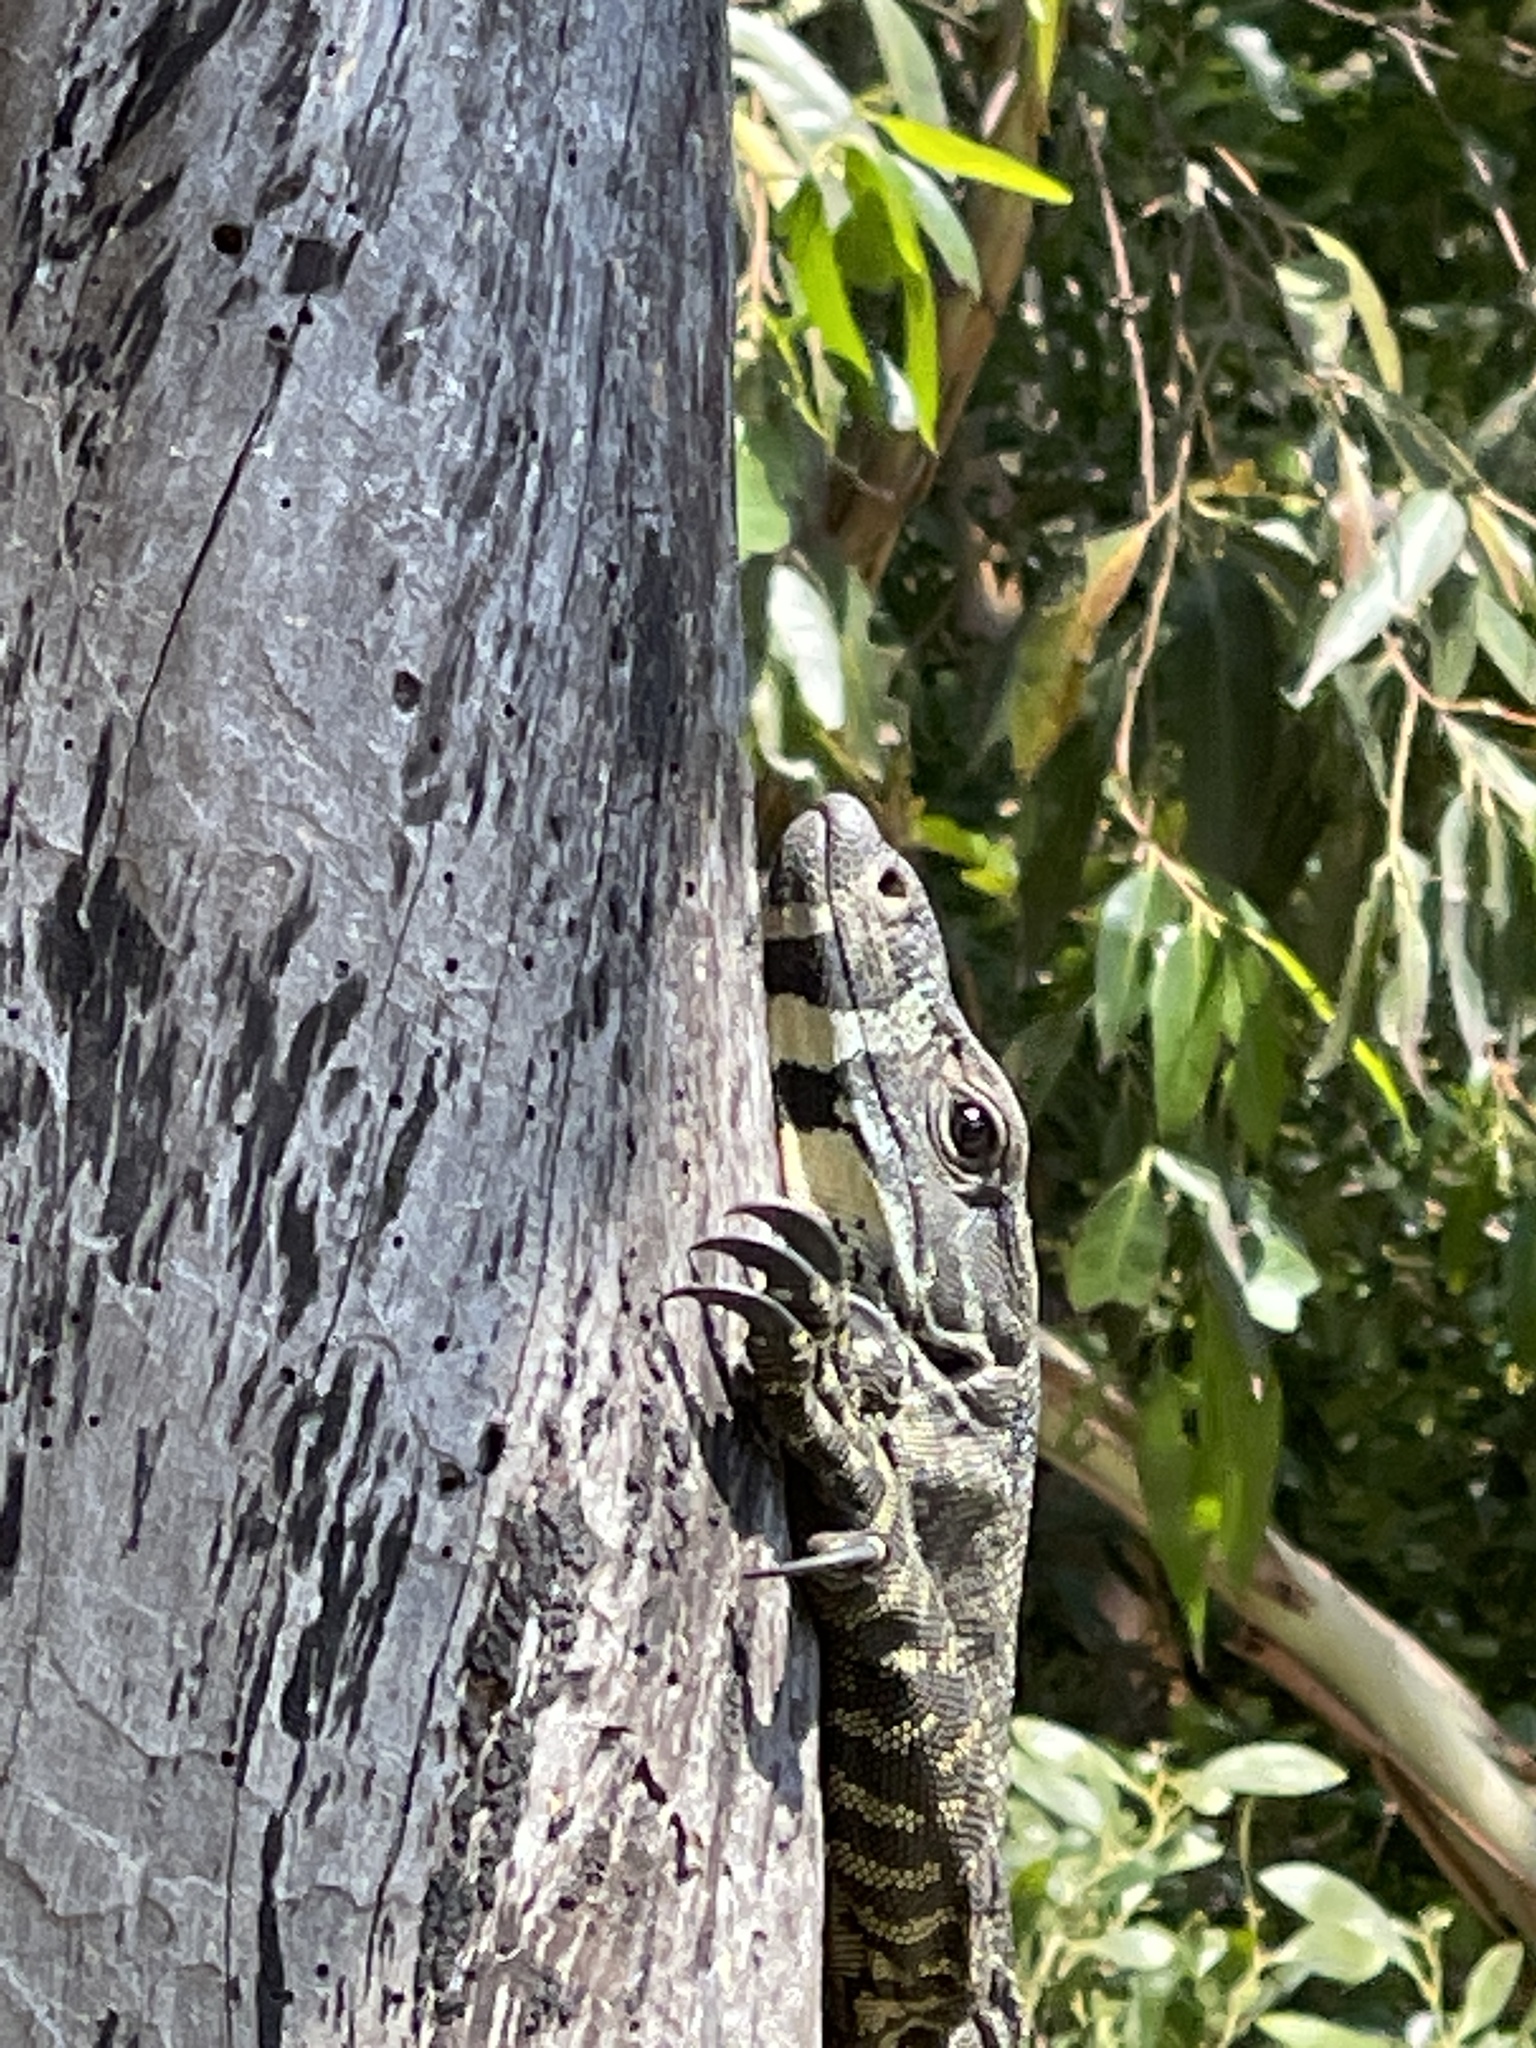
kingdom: Animalia
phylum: Chordata
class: Squamata
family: Varanidae
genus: Varanus
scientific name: Varanus varius
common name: Lace monitor
